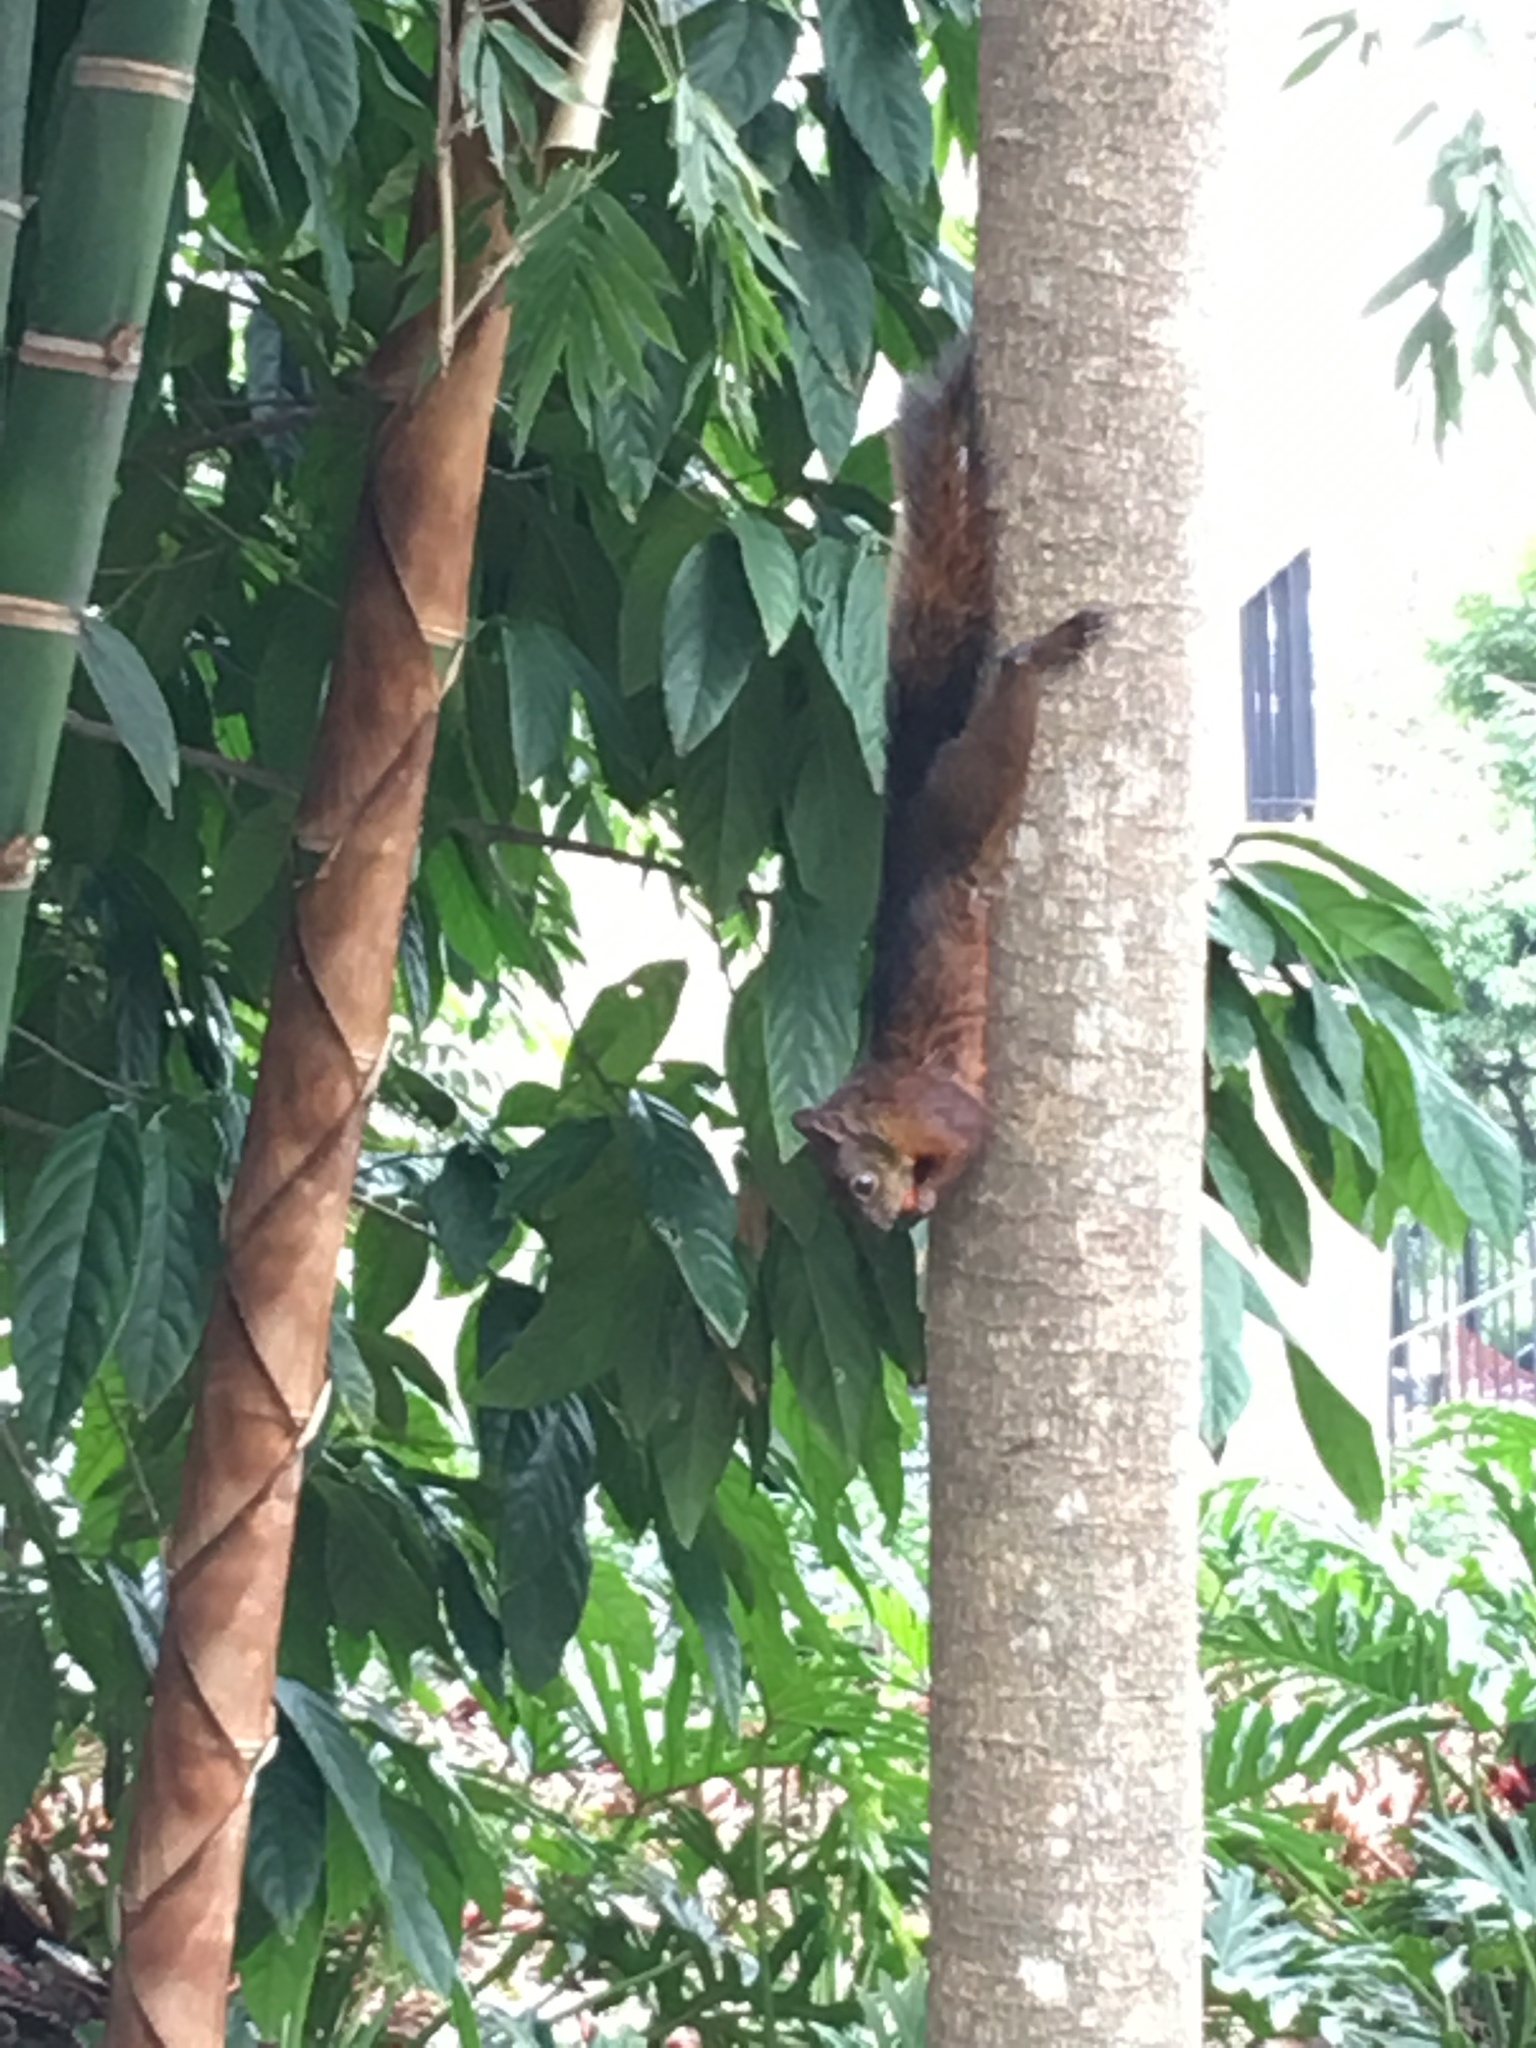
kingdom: Animalia
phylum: Chordata
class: Mammalia
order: Rodentia
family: Sciuridae
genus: Sciurus
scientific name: Sciurus granatensis
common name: Red-tailed squirrel
